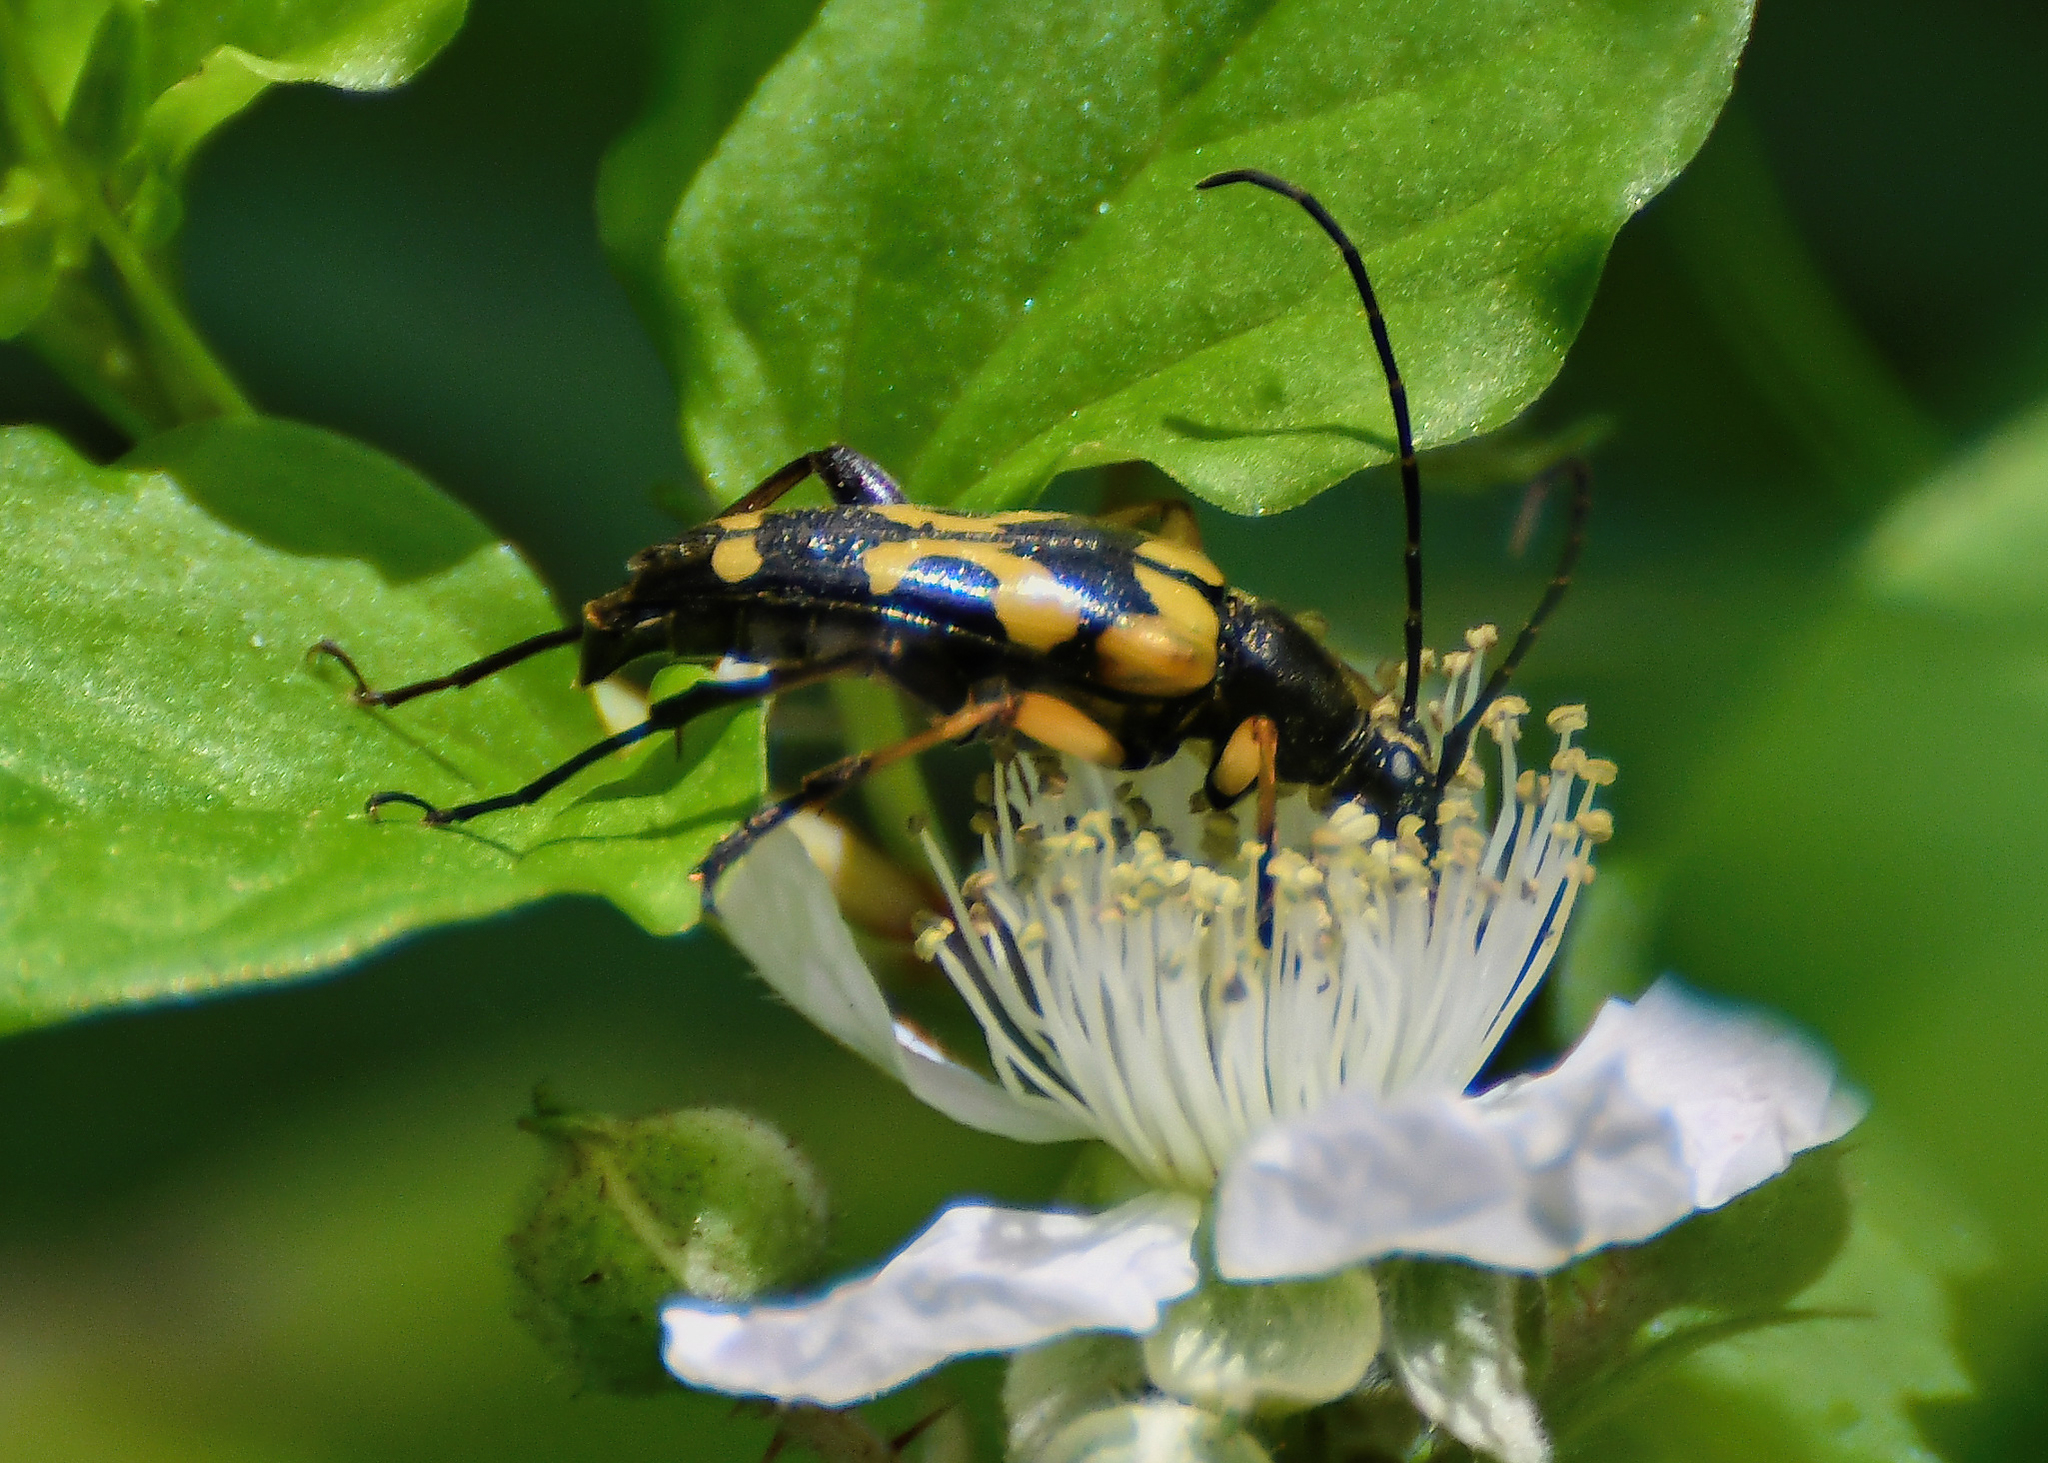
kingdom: Animalia
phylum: Arthropoda
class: Insecta
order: Coleoptera
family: Cerambycidae
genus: Rutpela
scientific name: Rutpela maculata
